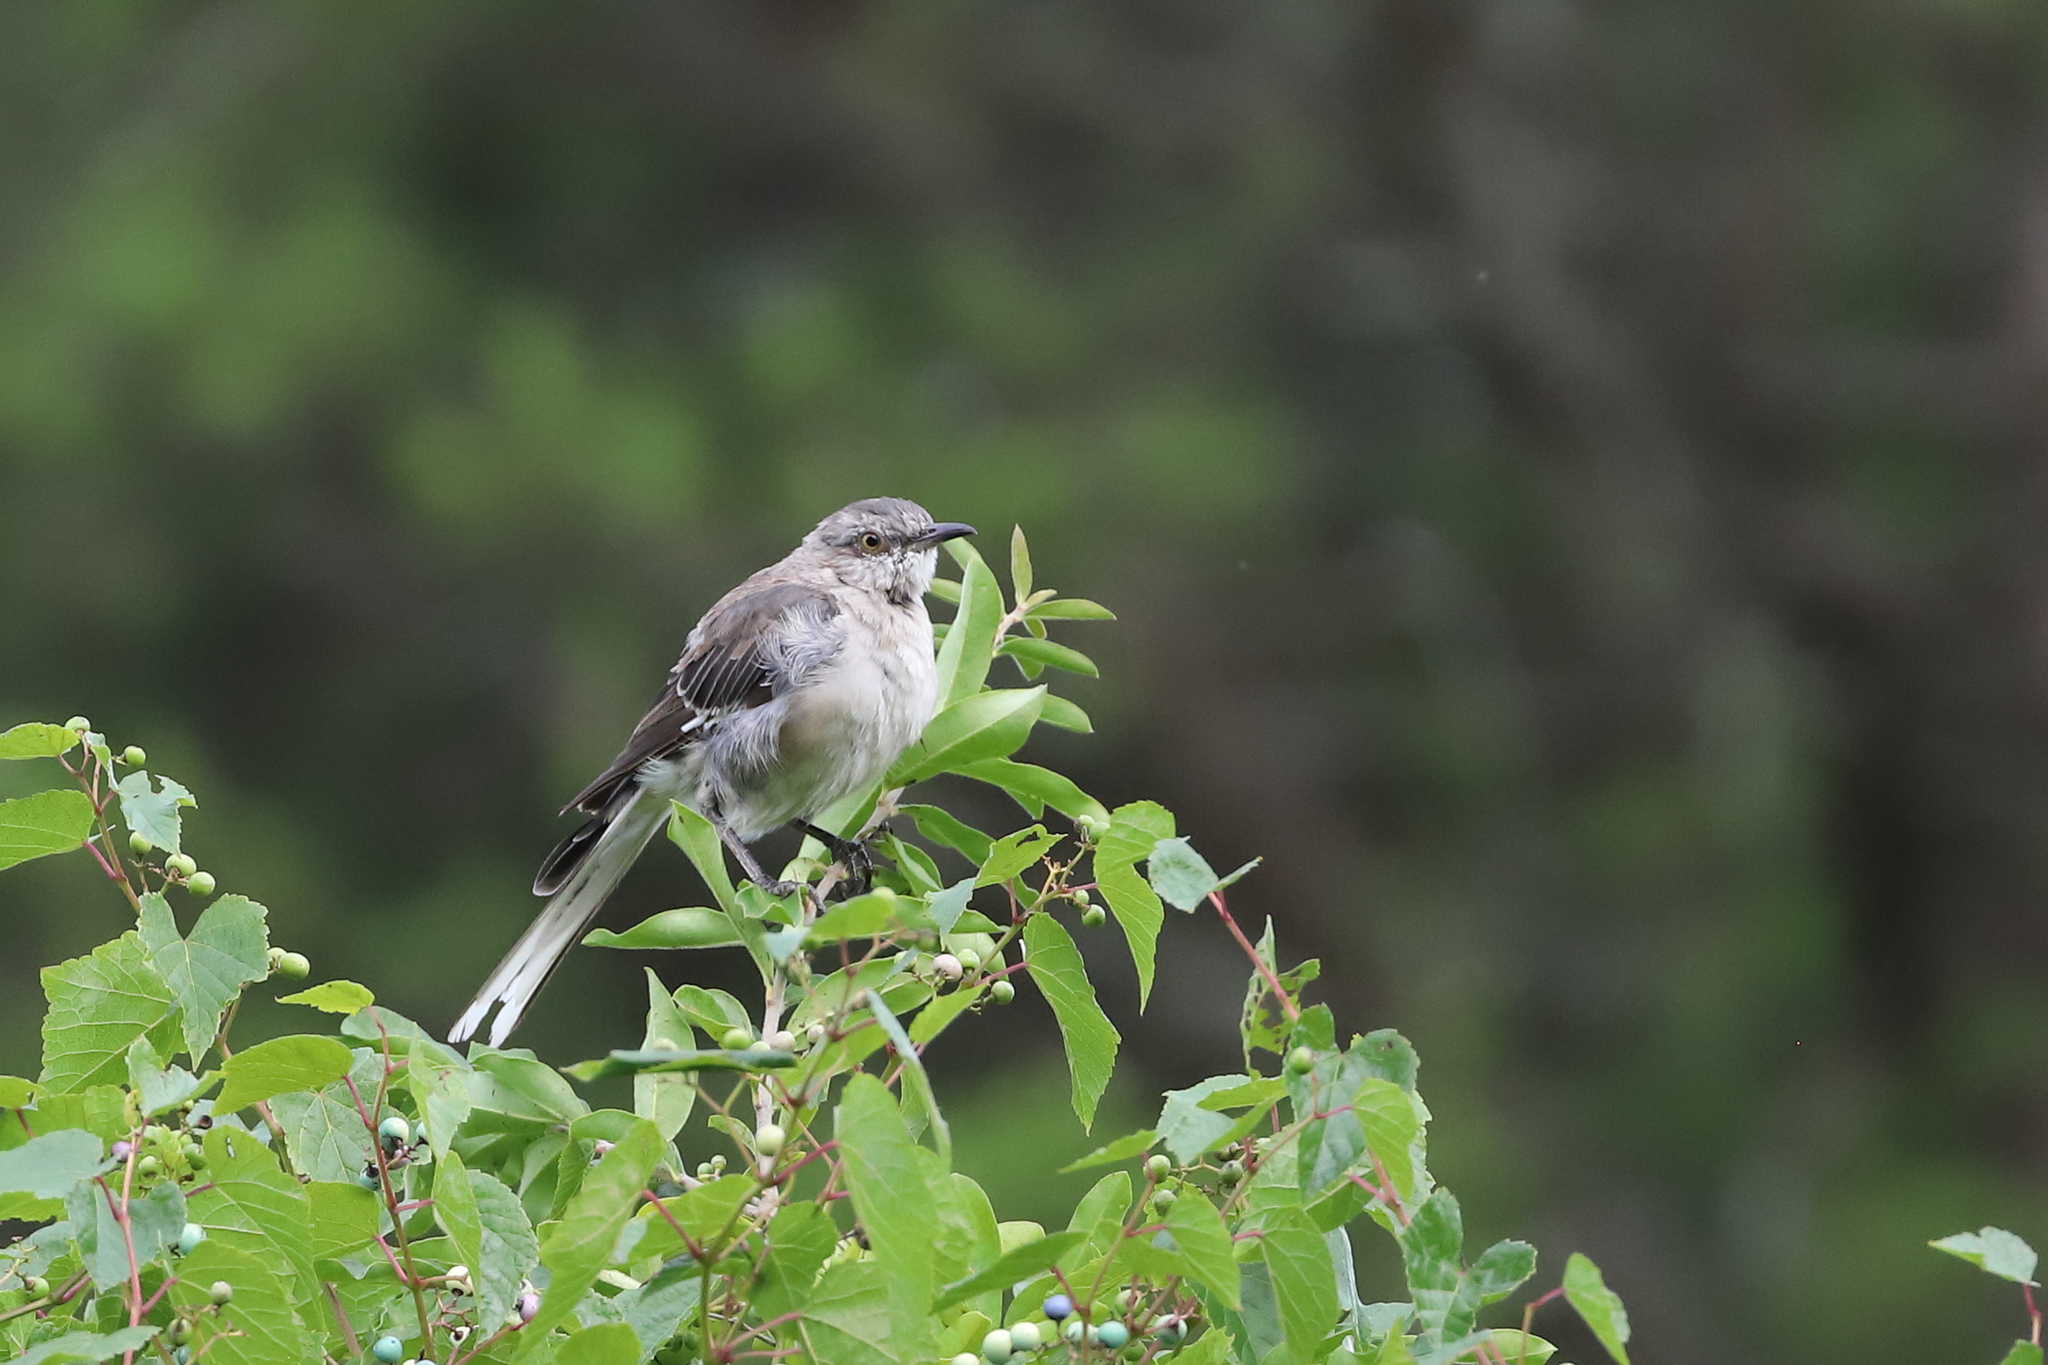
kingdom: Animalia
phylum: Chordata
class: Aves
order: Passeriformes
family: Mimidae
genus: Mimus
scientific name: Mimus polyglottos
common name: Northern mockingbird
